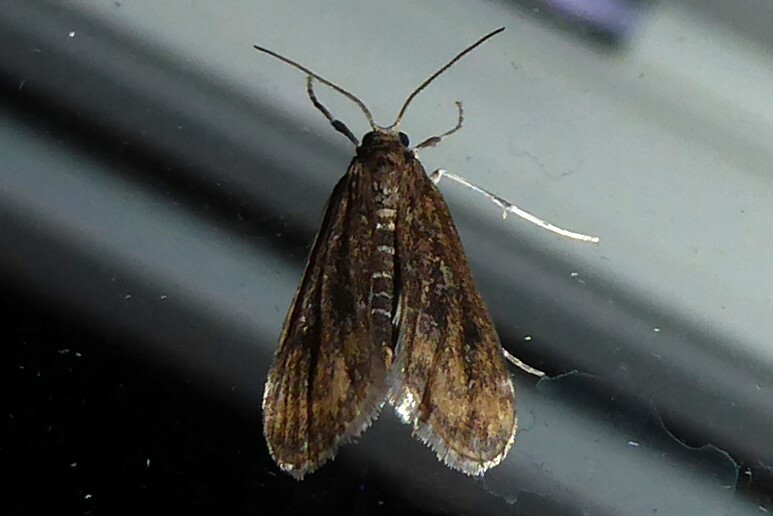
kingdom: Animalia
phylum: Arthropoda
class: Insecta
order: Lepidoptera
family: Crambidae
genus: Hygraula
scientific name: Hygraula nitens
